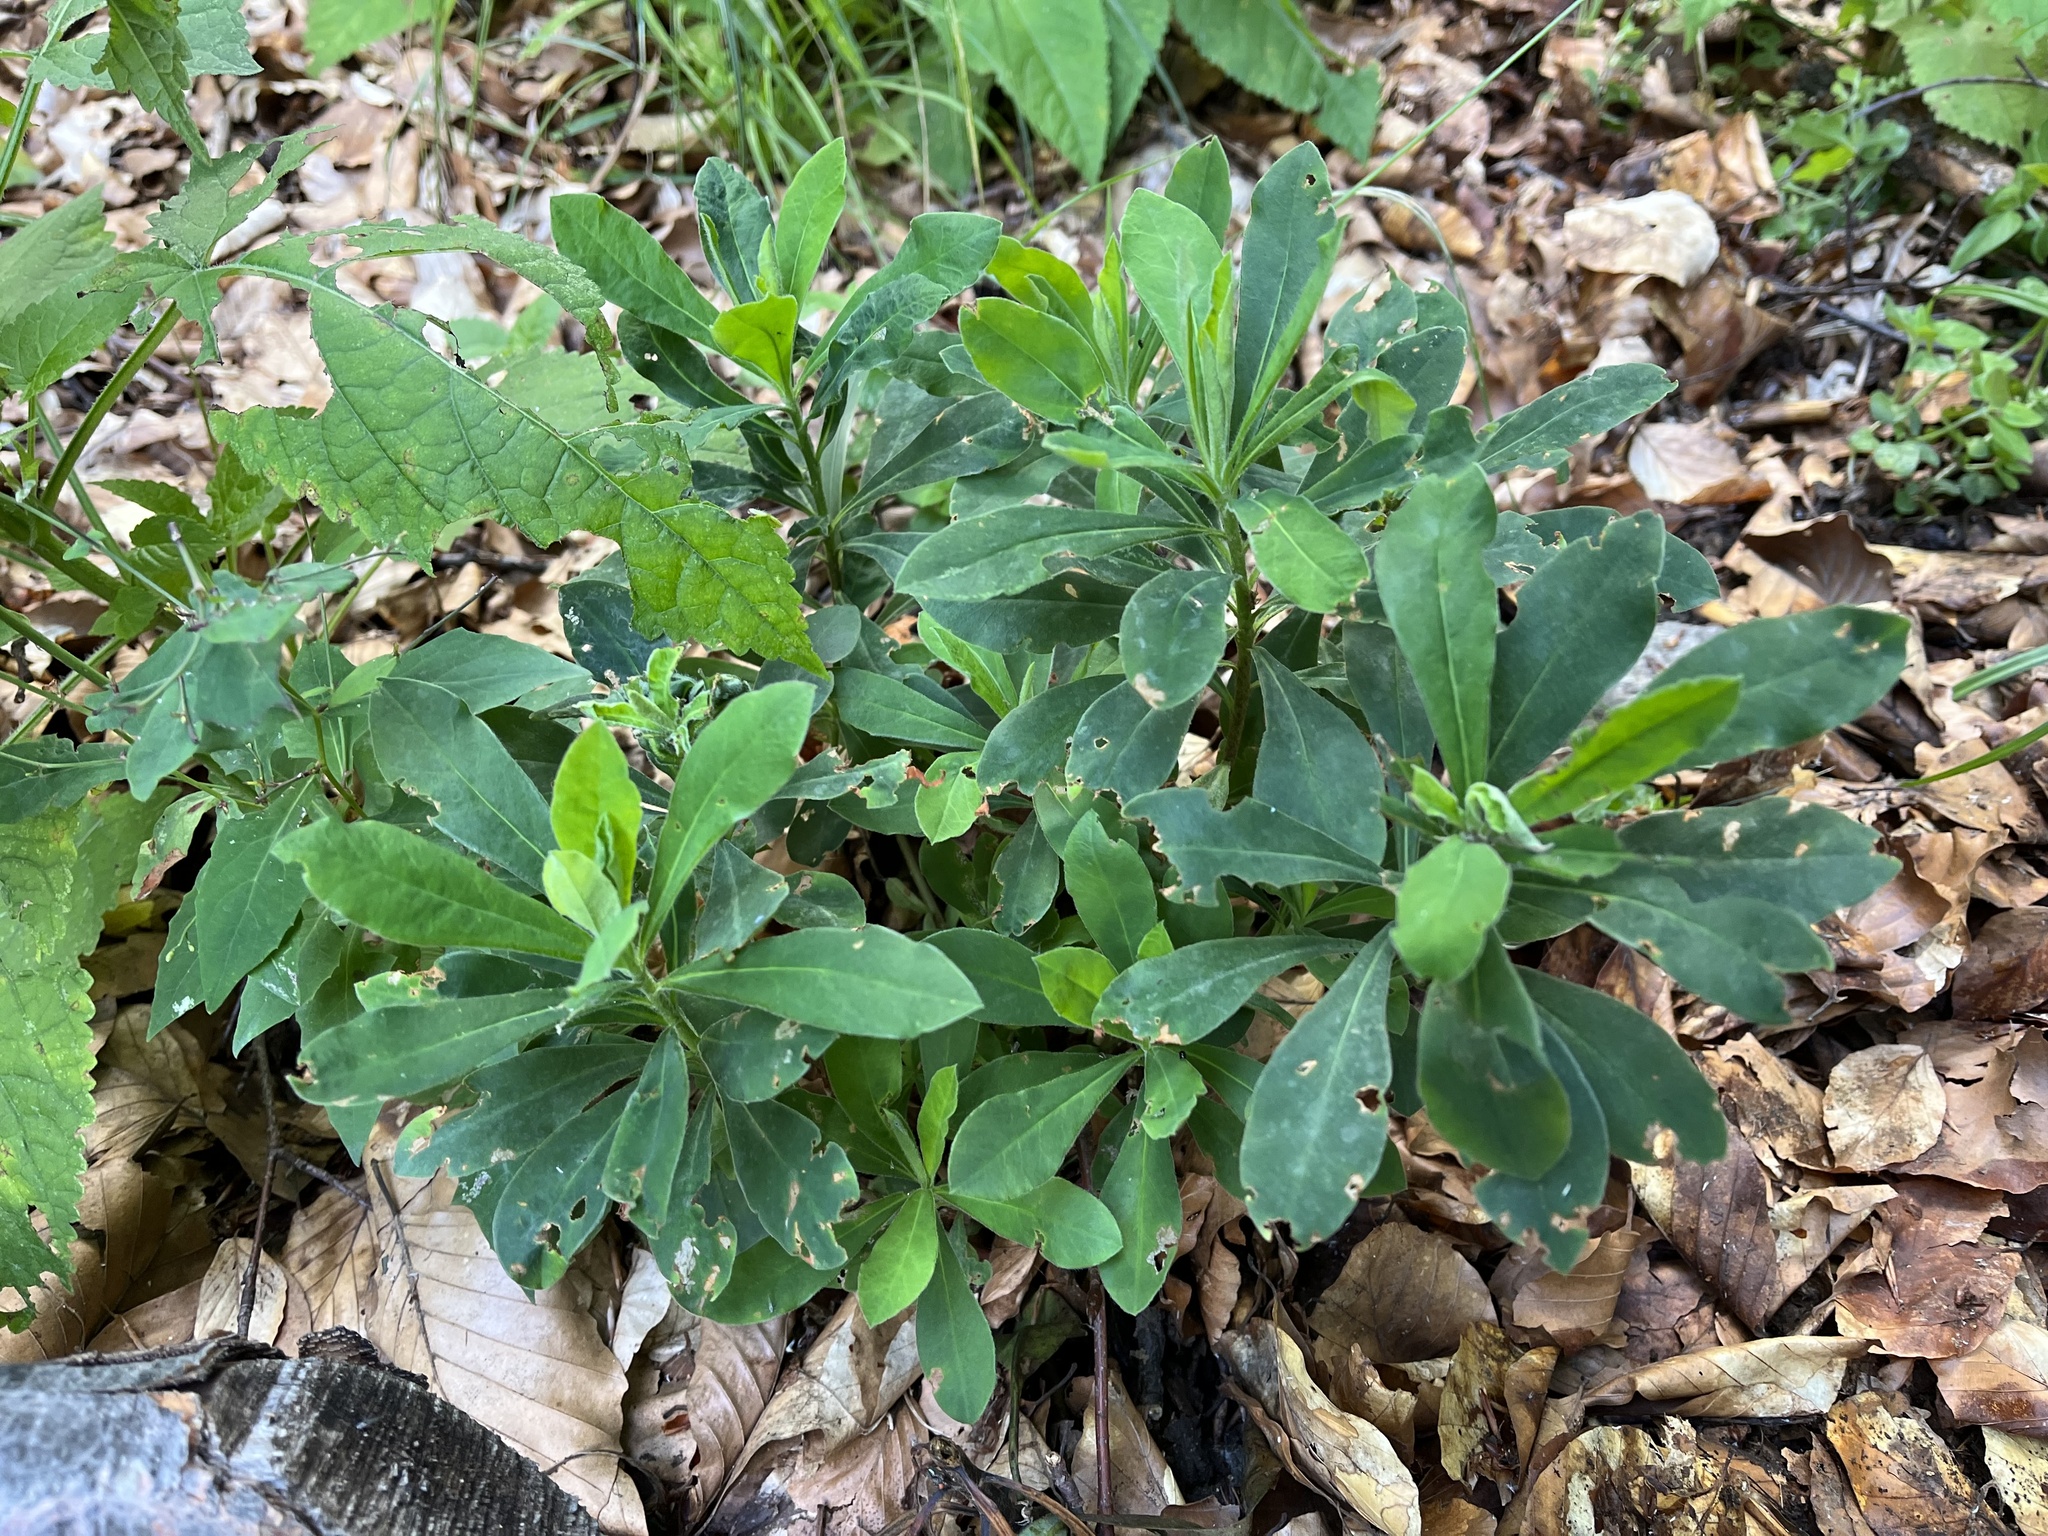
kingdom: Plantae
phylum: Tracheophyta
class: Magnoliopsida
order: Malpighiales
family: Euphorbiaceae
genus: Euphorbia
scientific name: Euphorbia amygdaloides
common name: Wood spurge
